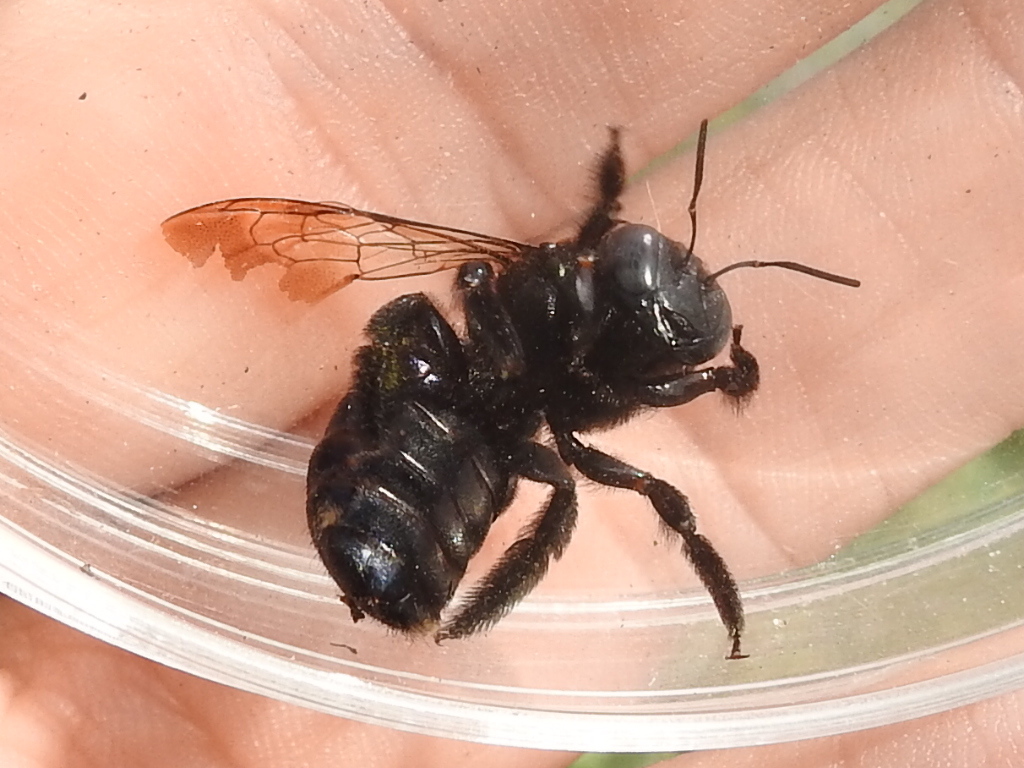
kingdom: Animalia
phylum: Arthropoda
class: Insecta
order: Hymenoptera
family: Apidae
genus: Xylocopa
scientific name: Xylocopa micans
